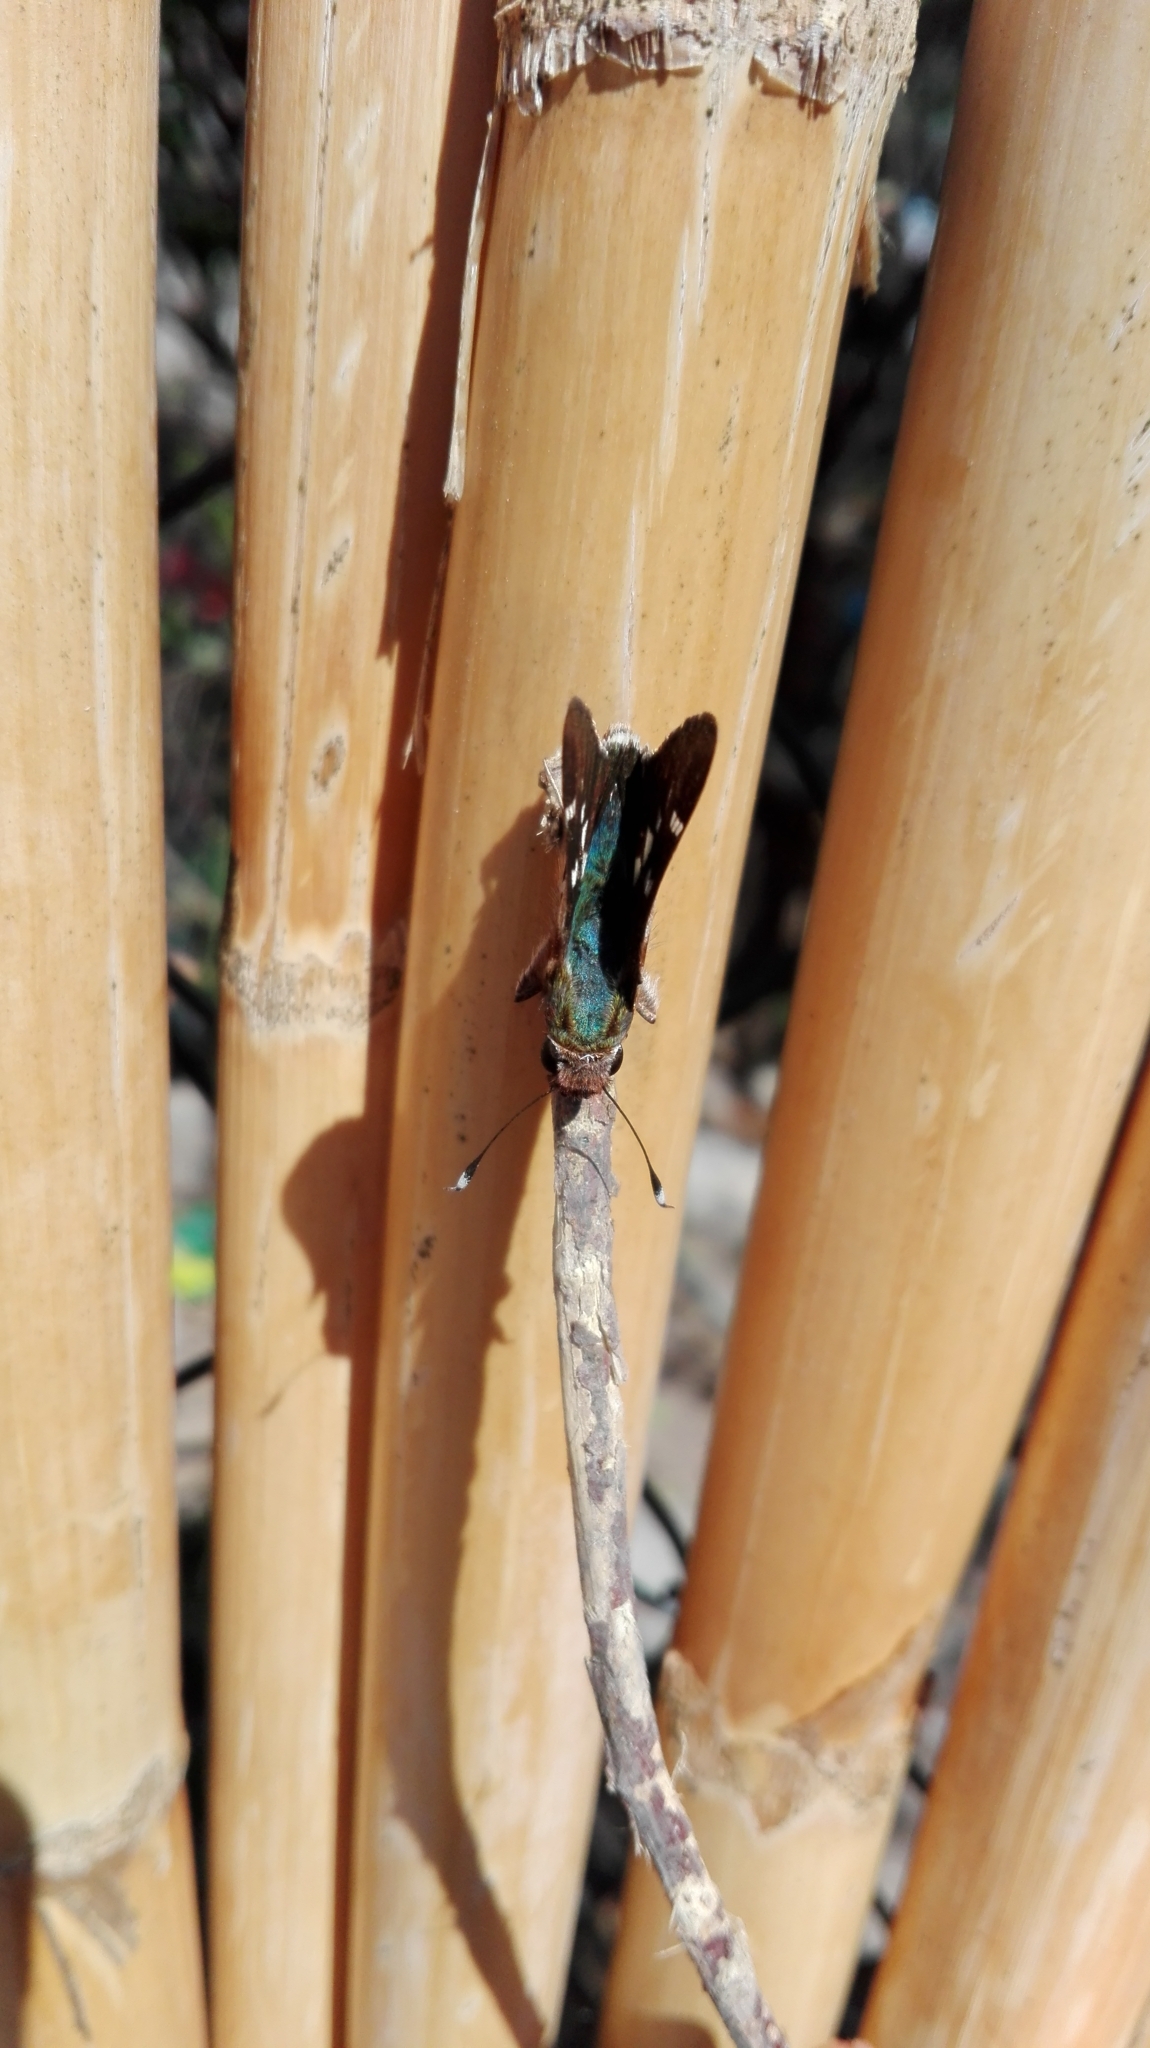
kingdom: Animalia
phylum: Arthropoda
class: Insecta
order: Lepidoptera
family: Hesperiidae
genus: Thespieus
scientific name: Thespieus macareus
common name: Chestnut-marked skipper
